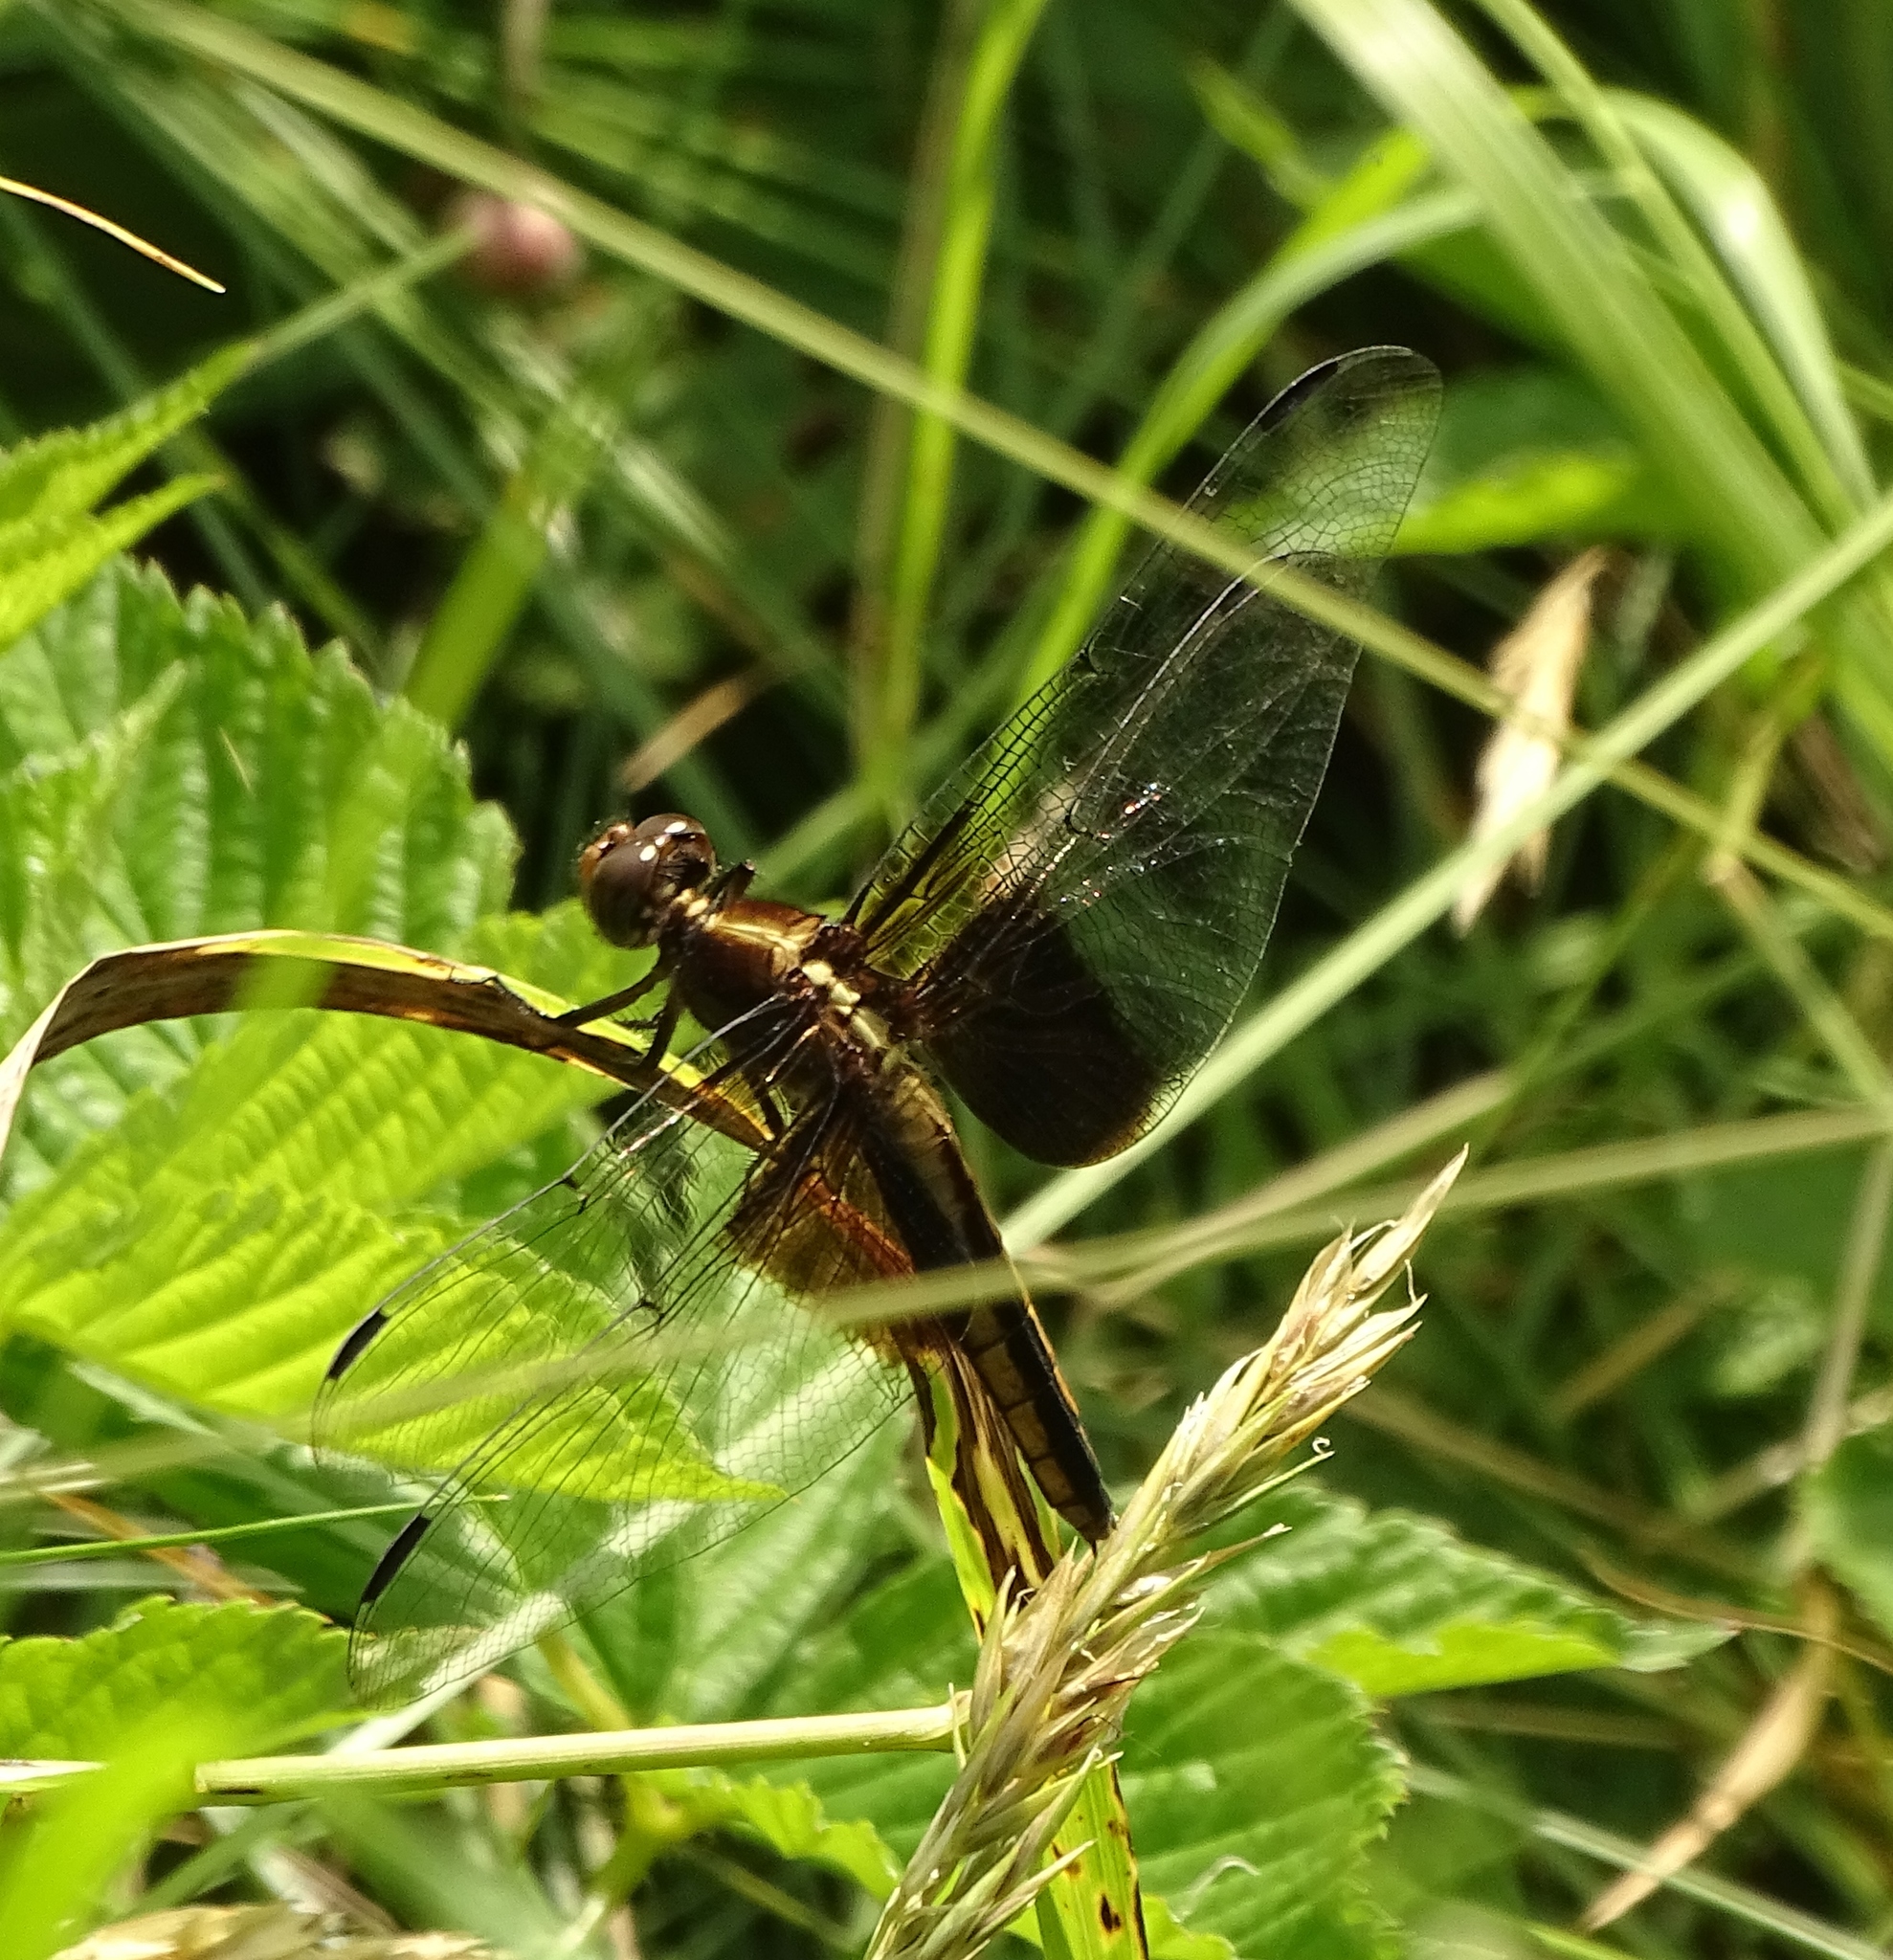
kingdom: Animalia
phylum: Arthropoda
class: Insecta
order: Odonata
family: Libellulidae
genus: Libellula
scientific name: Libellula luctuosa
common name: Widow skimmer
